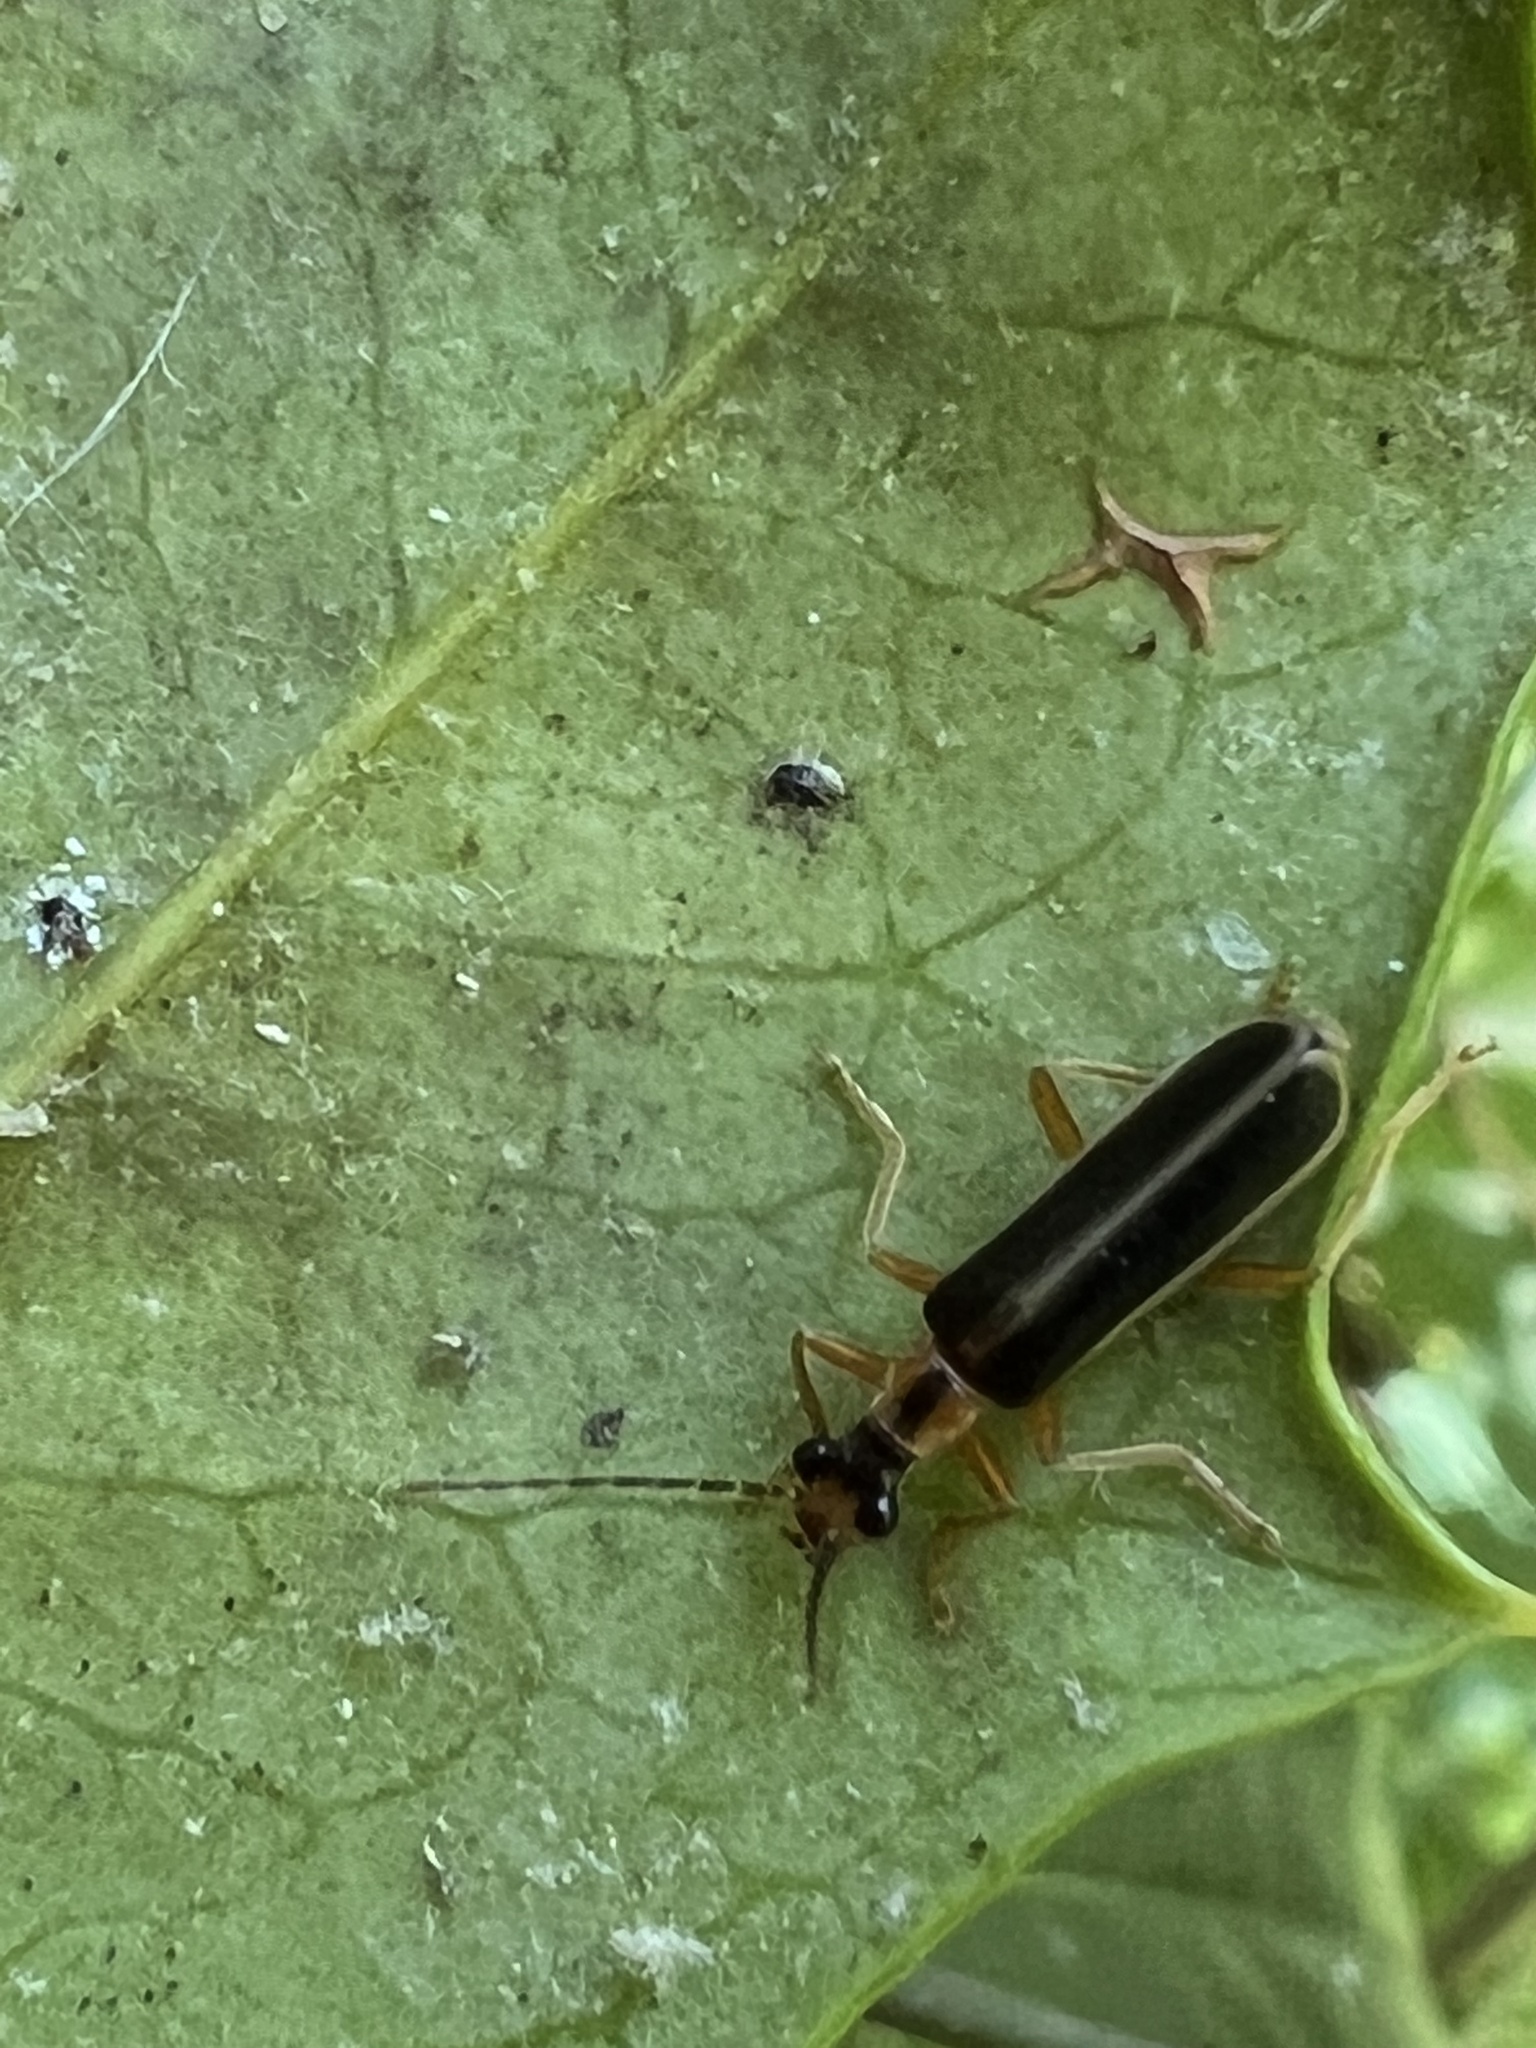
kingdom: Animalia
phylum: Arthropoda
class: Insecta
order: Coleoptera
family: Cantharidae
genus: Podabrus
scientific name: Podabrus brunnicollis
